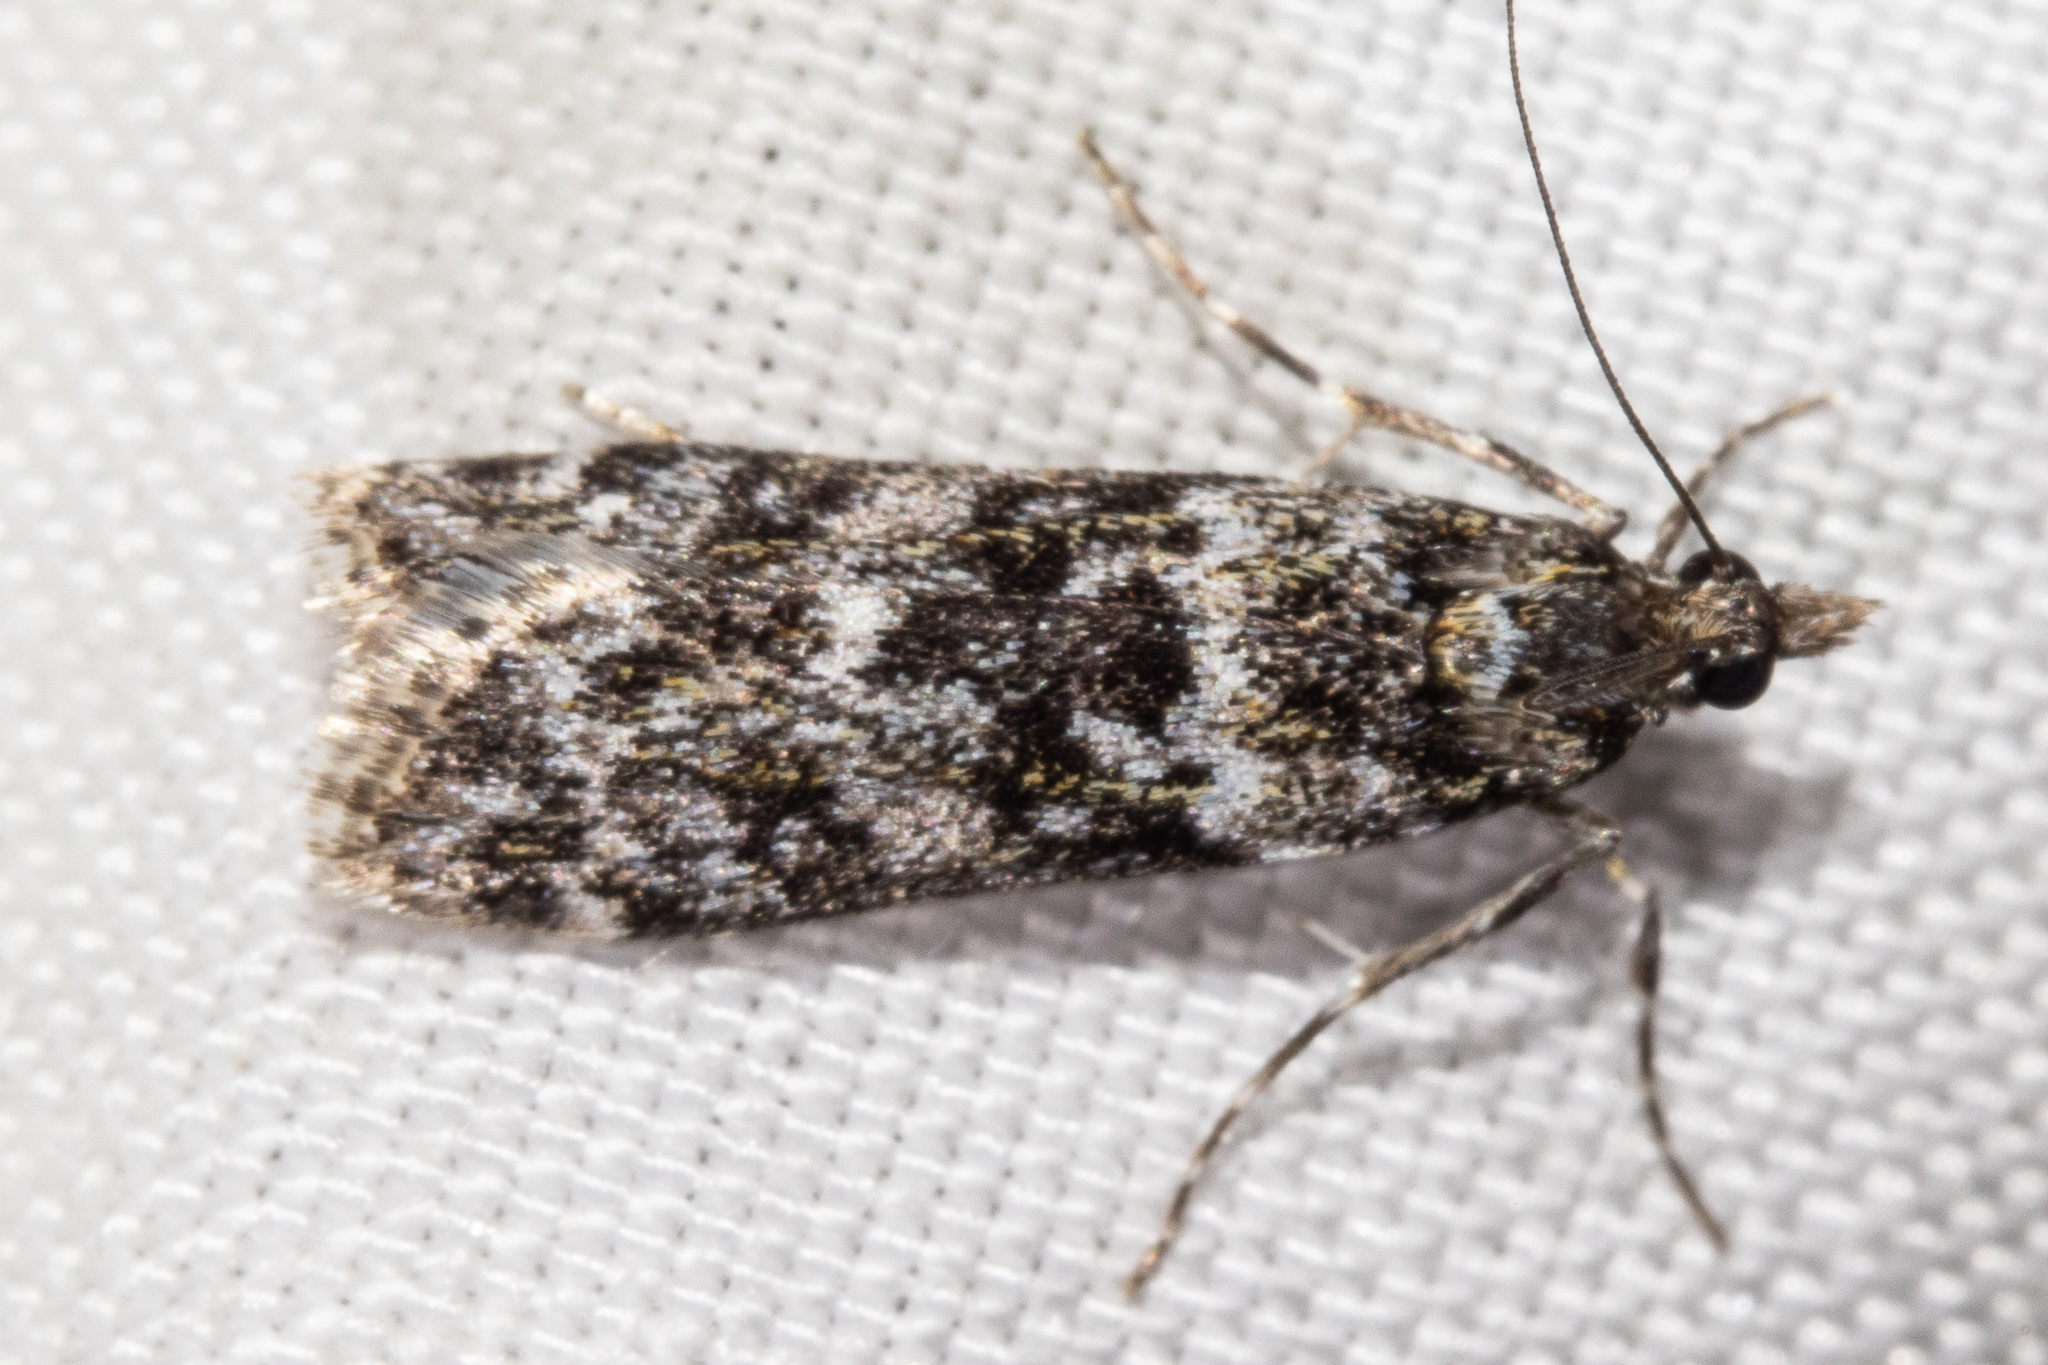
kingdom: Animalia
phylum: Arthropoda
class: Insecta
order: Lepidoptera
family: Crambidae
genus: Eudonia
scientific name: Eudonia manganeutis
